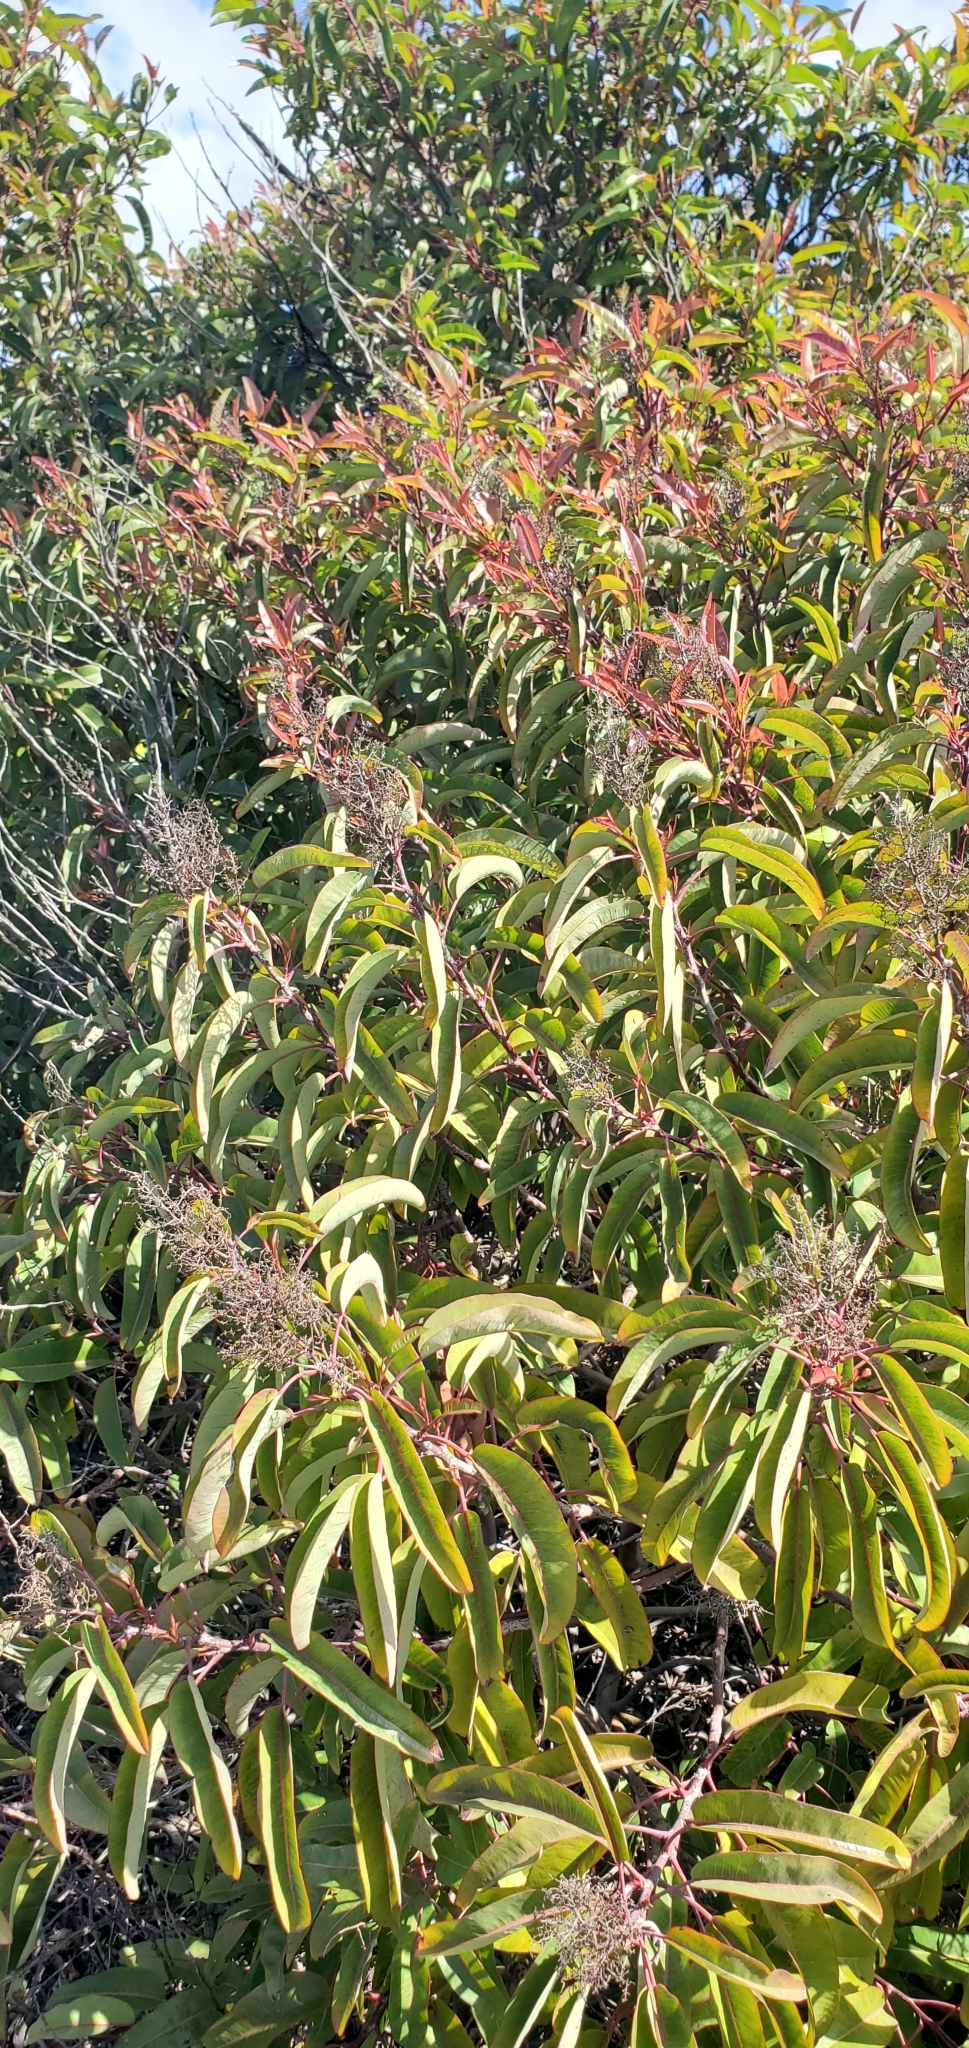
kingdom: Plantae
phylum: Tracheophyta
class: Magnoliopsida
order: Sapindales
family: Anacardiaceae
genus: Malosma
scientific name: Malosma laurina
